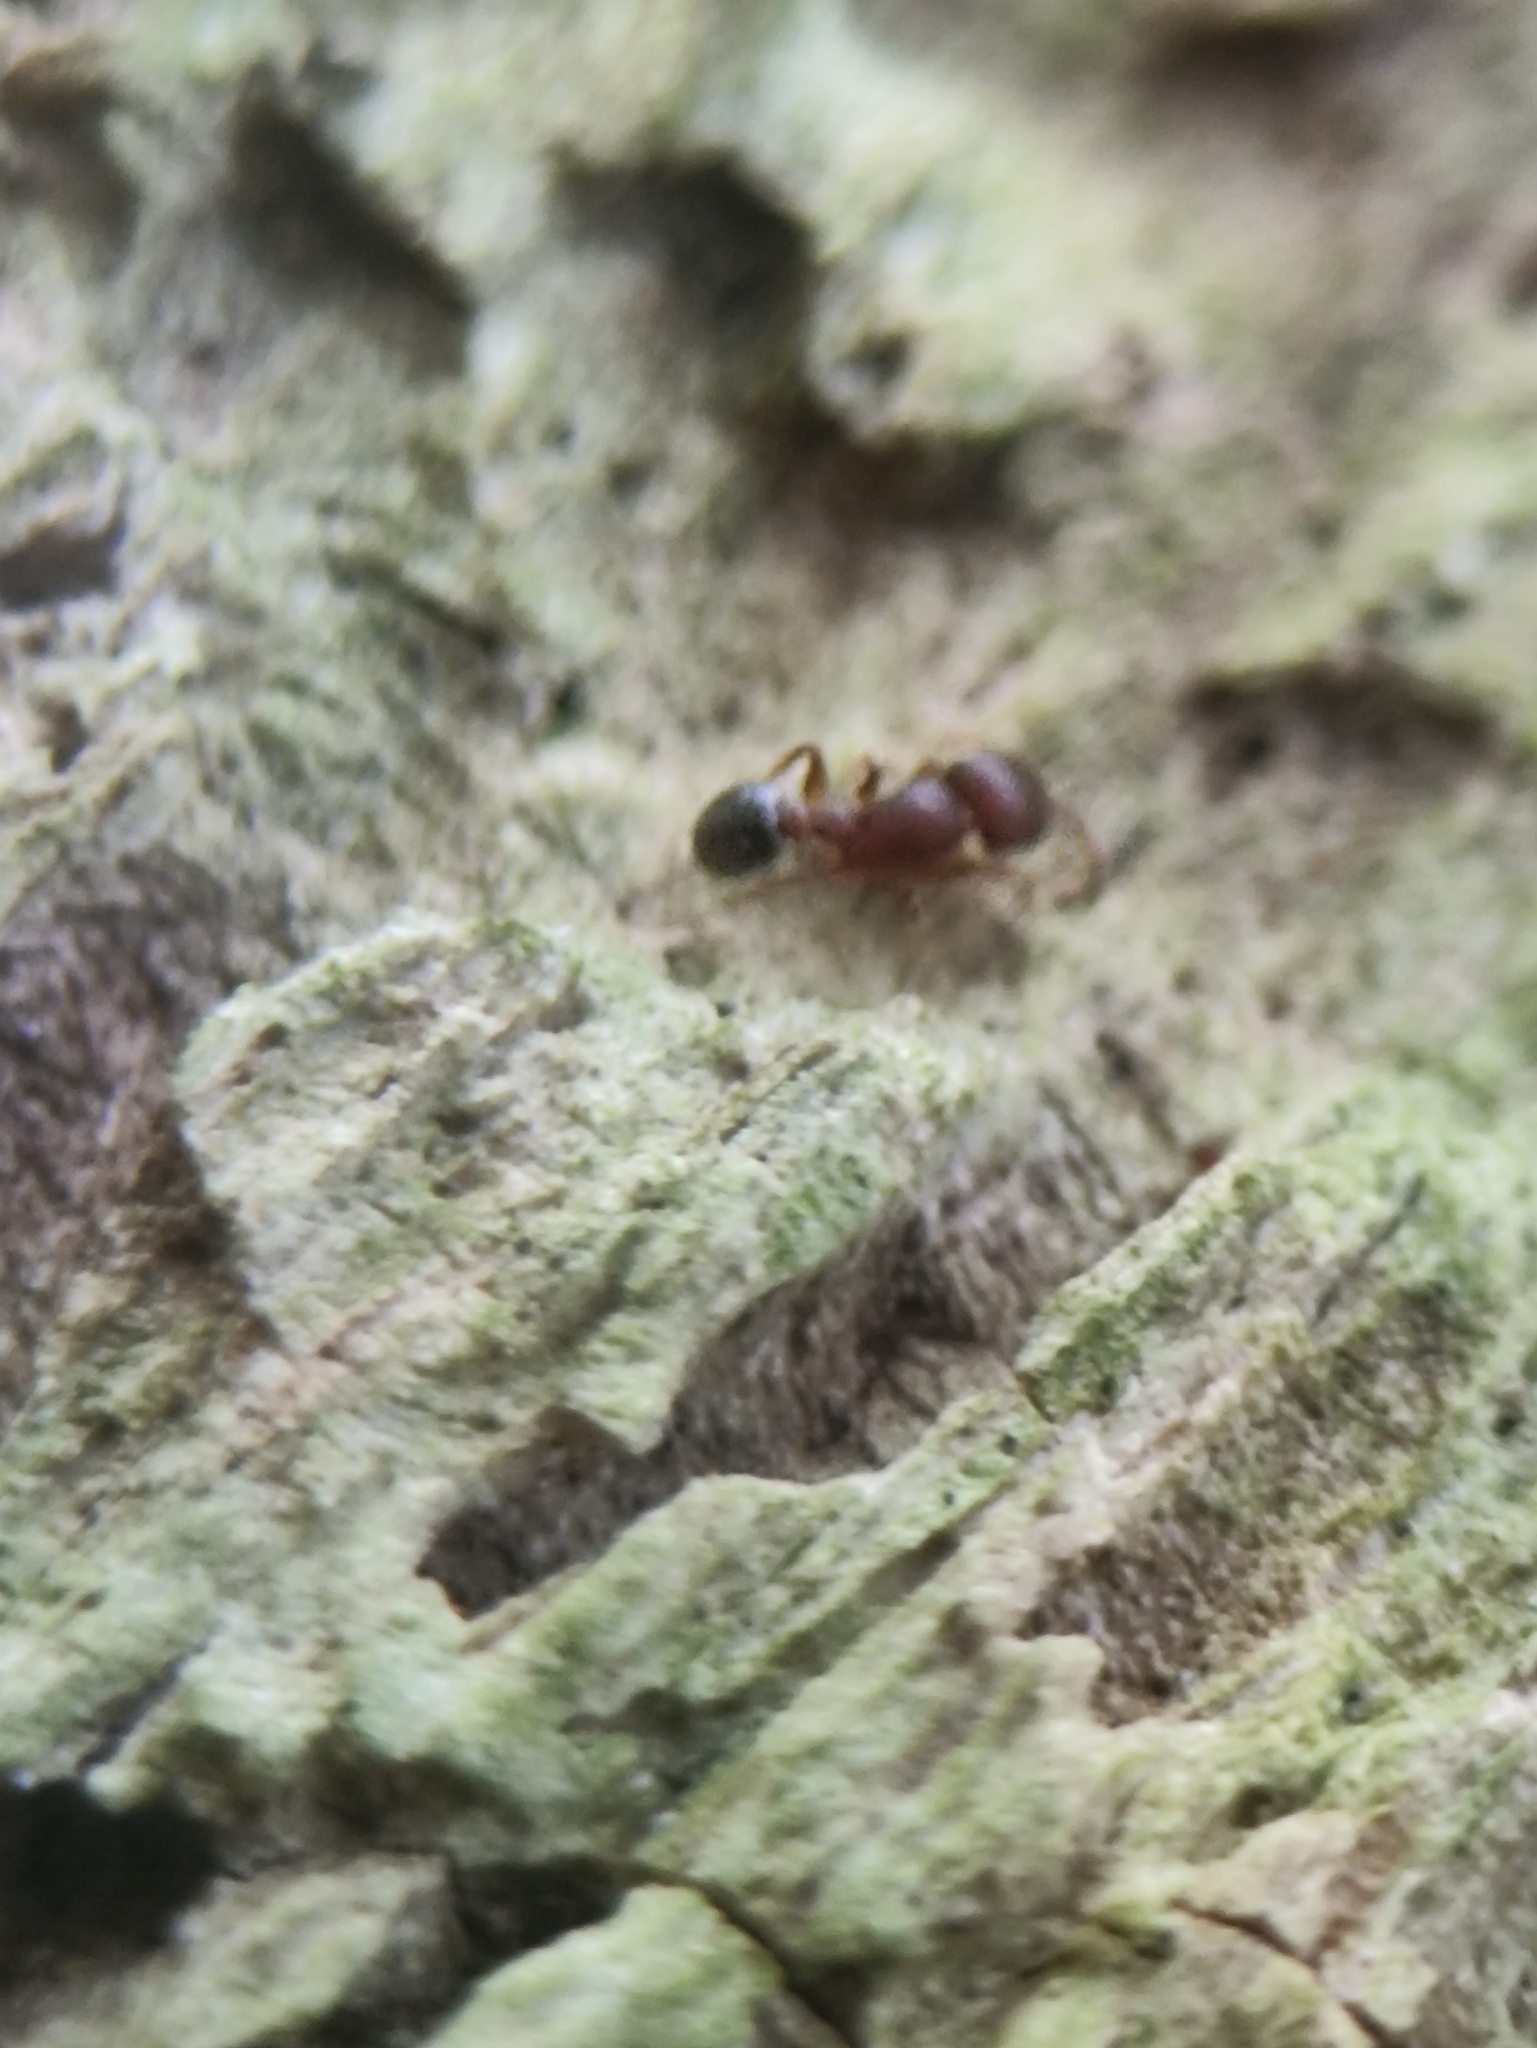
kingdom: Animalia
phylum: Arthropoda
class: Insecta
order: Hymenoptera
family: Formicidae
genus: Tetramorium
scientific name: Tetramorium lanuginosum
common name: Ant
